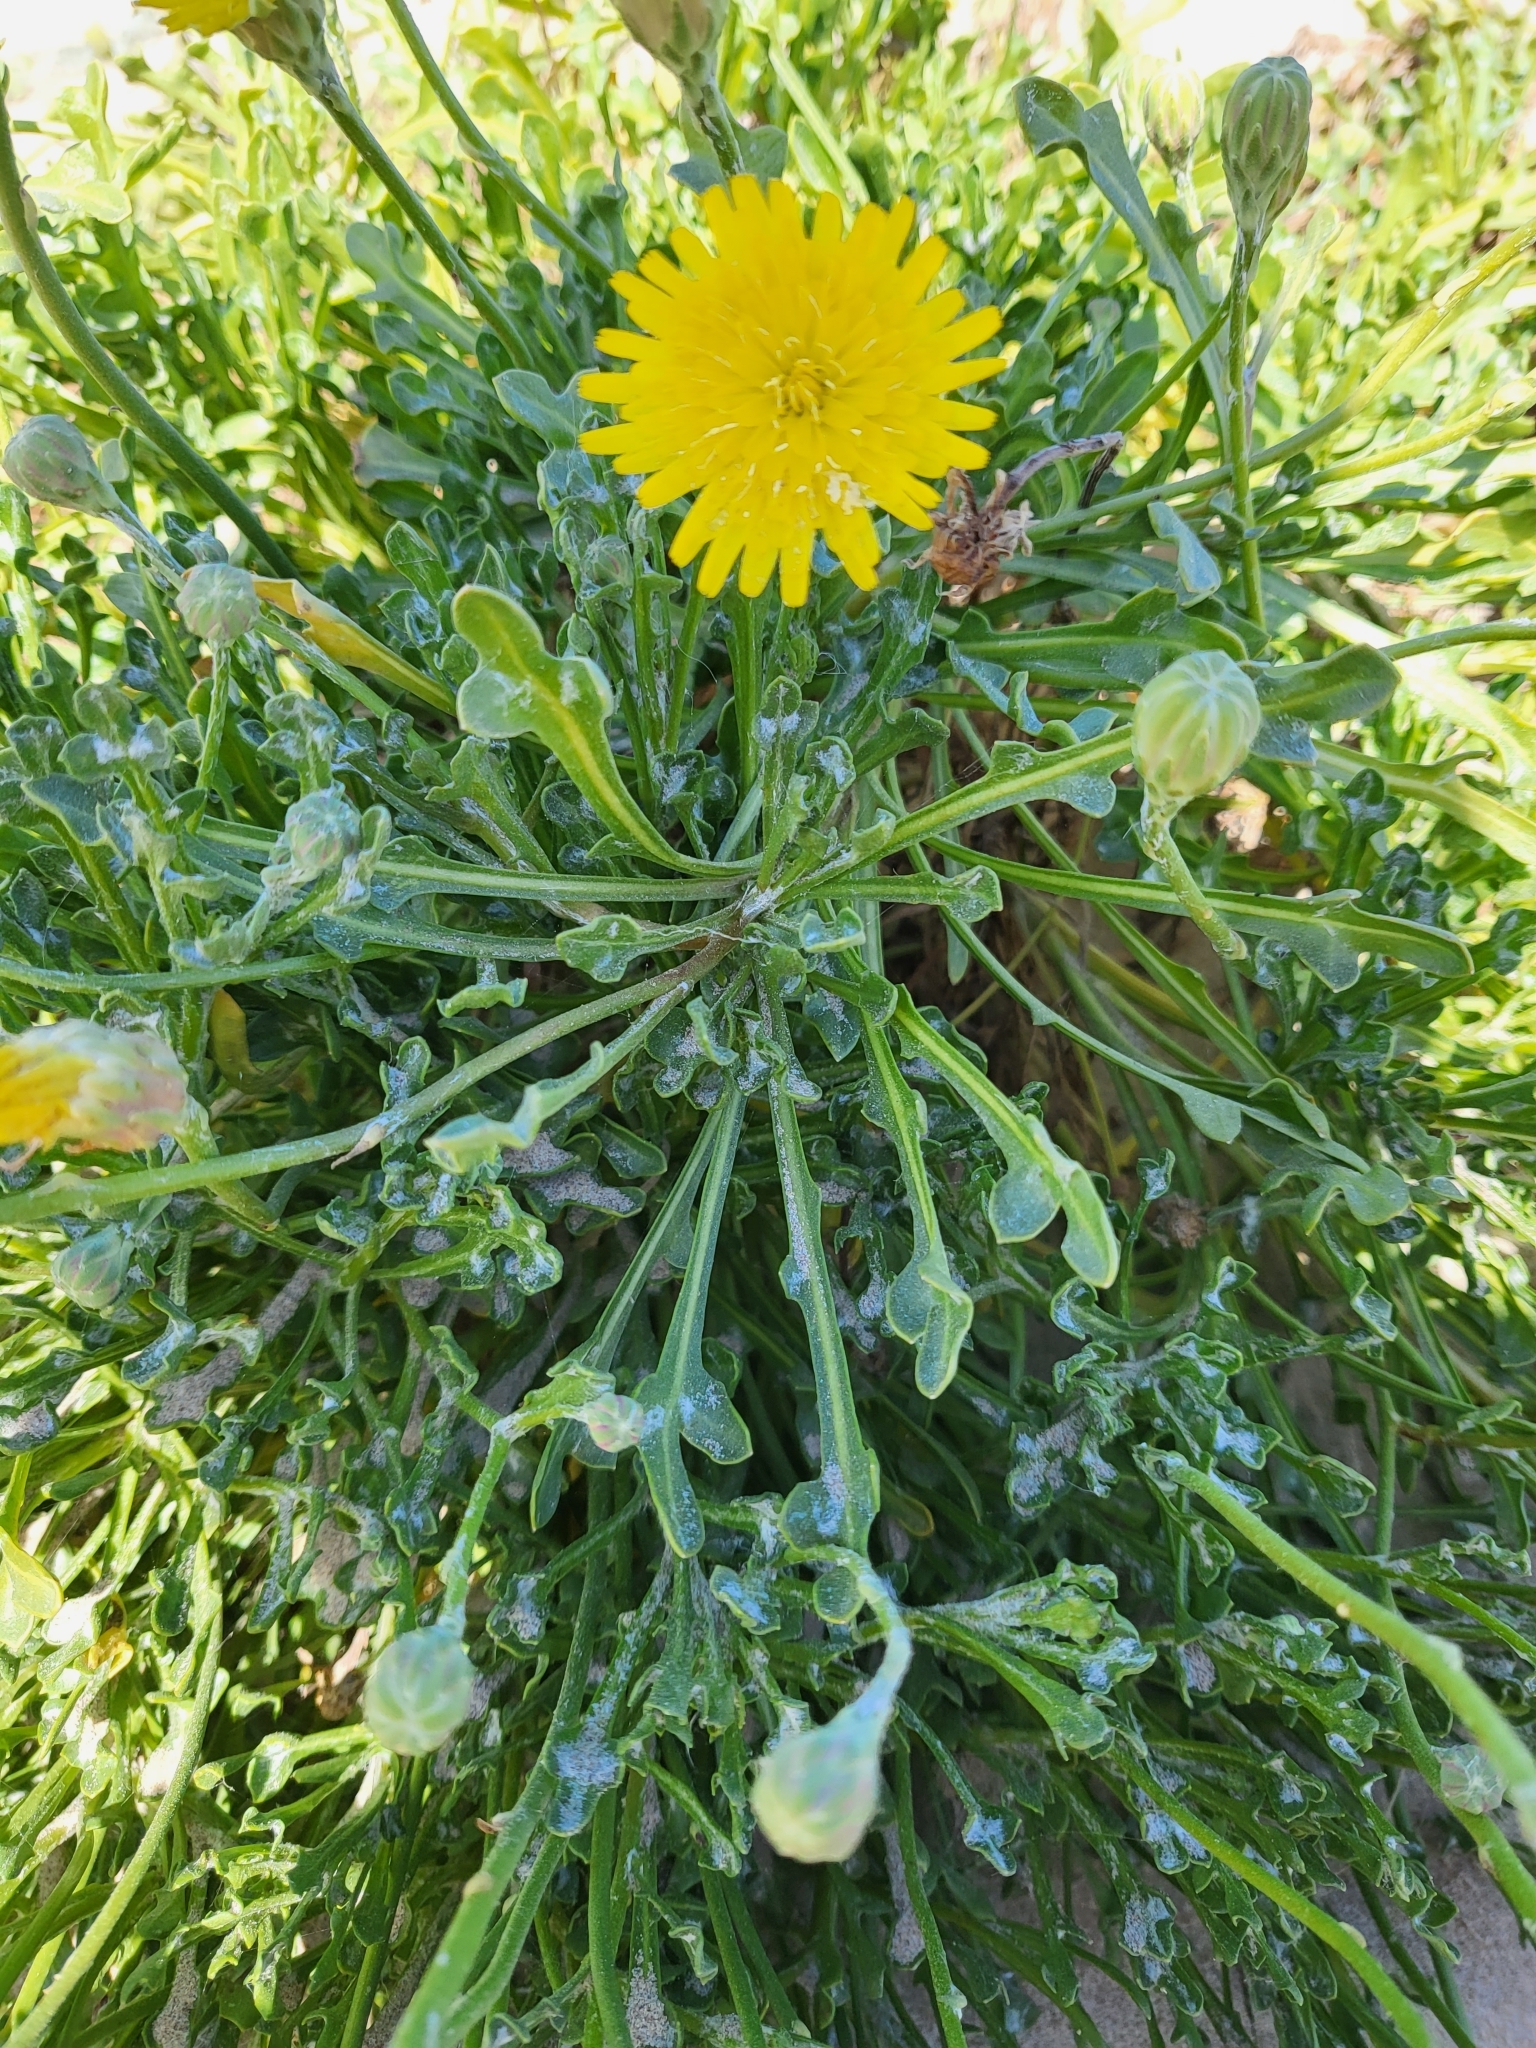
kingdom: Plantae
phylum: Tracheophyta
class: Magnoliopsida
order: Asterales
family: Asteraceae
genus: Malacothrix
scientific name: Malacothrix incana
